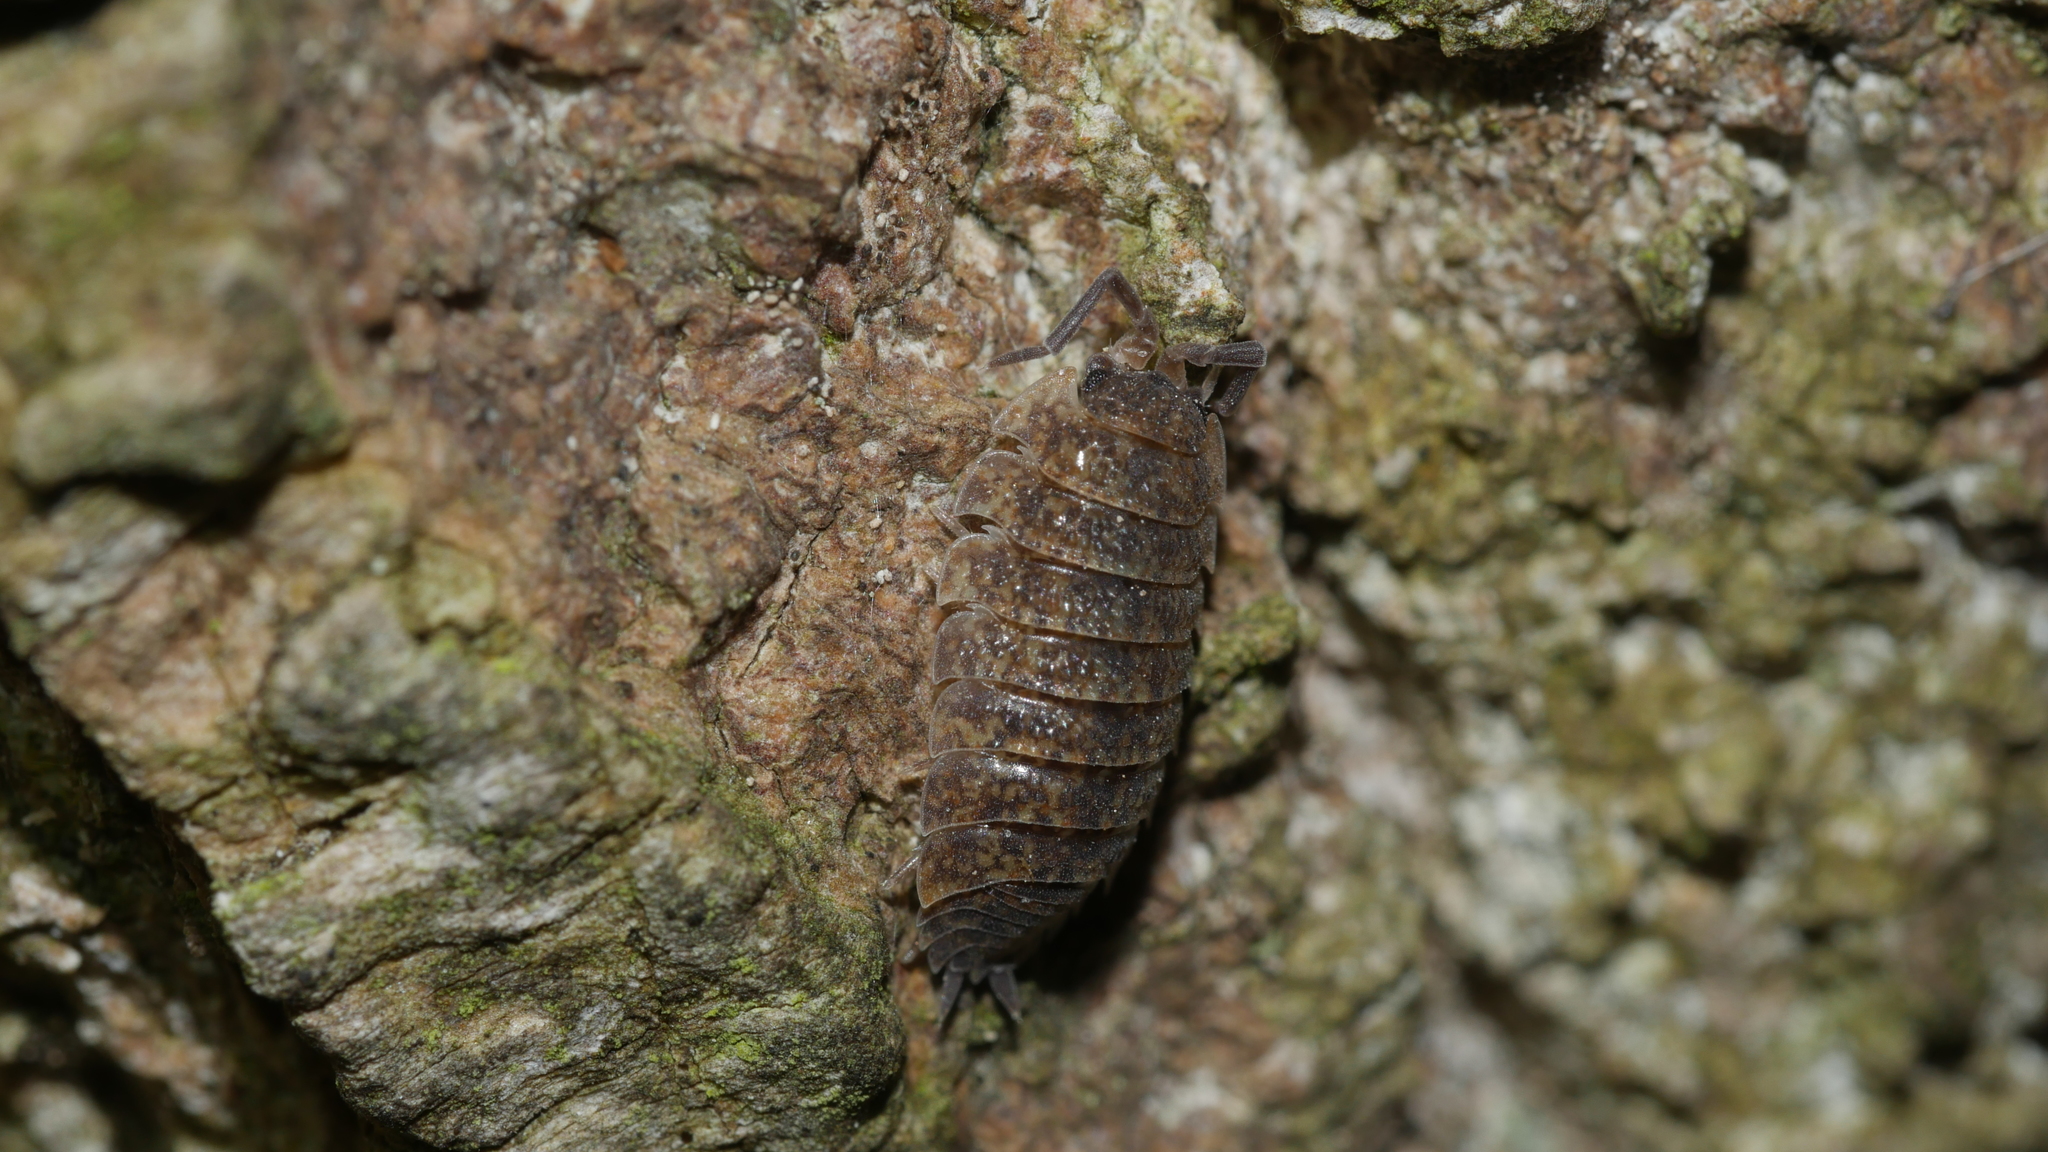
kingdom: Animalia
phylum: Arthropoda
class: Malacostraca
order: Isopoda
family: Porcellionidae
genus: Porcellio
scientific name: Porcellio scaber
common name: Common rough woodlouse
